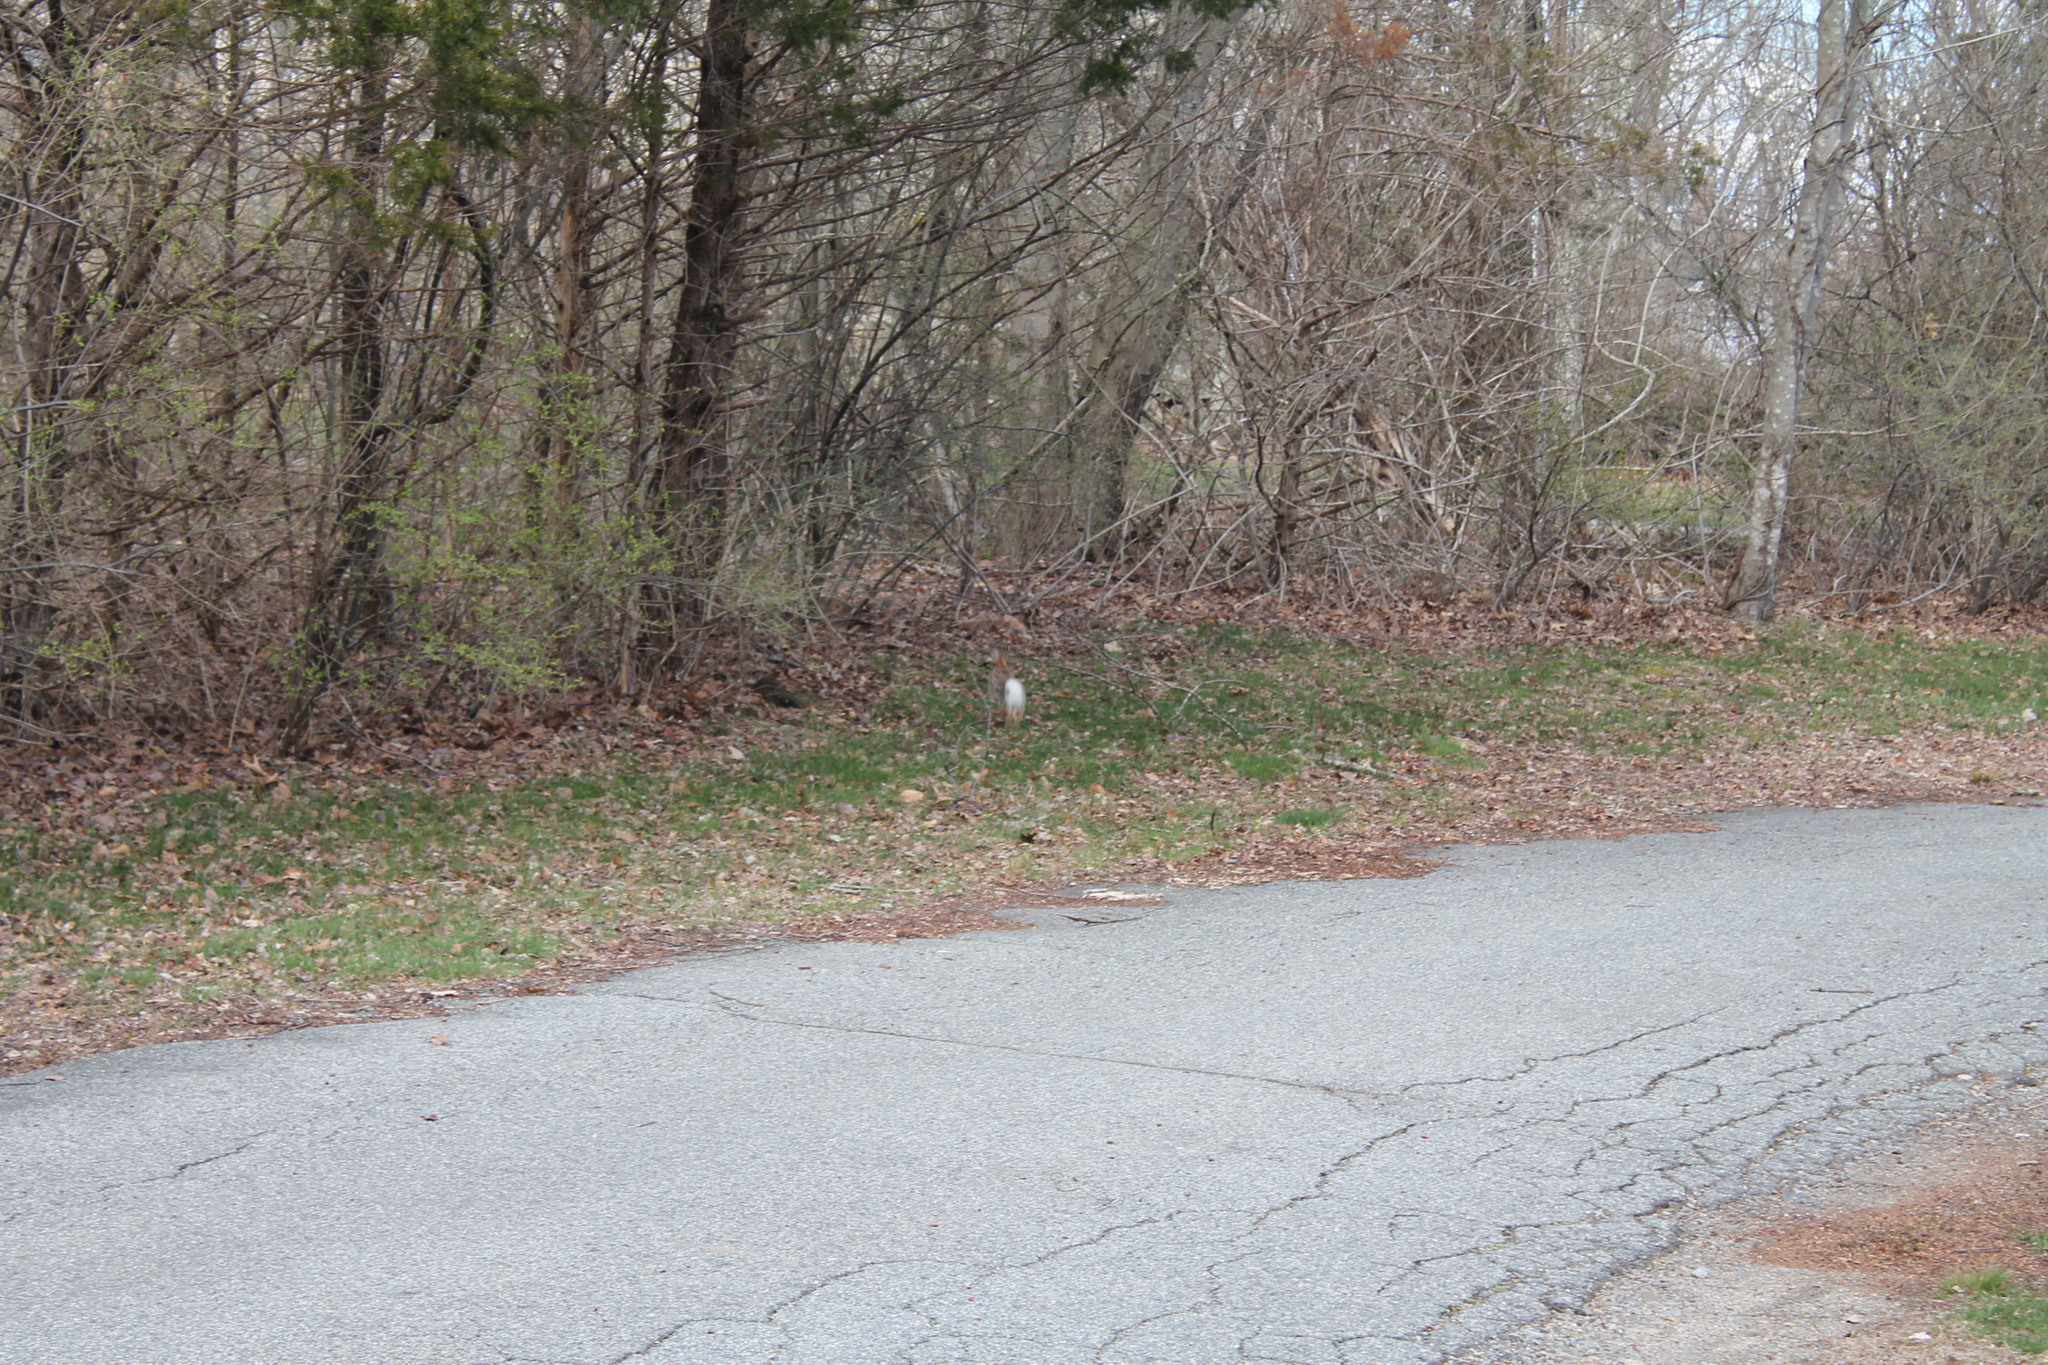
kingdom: Animalia
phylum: Chordata
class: Mammalia
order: Lagomorpha
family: Leporidae
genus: Sylvilagus
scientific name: Sylvilagus floridanus
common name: Eastern cottontail
